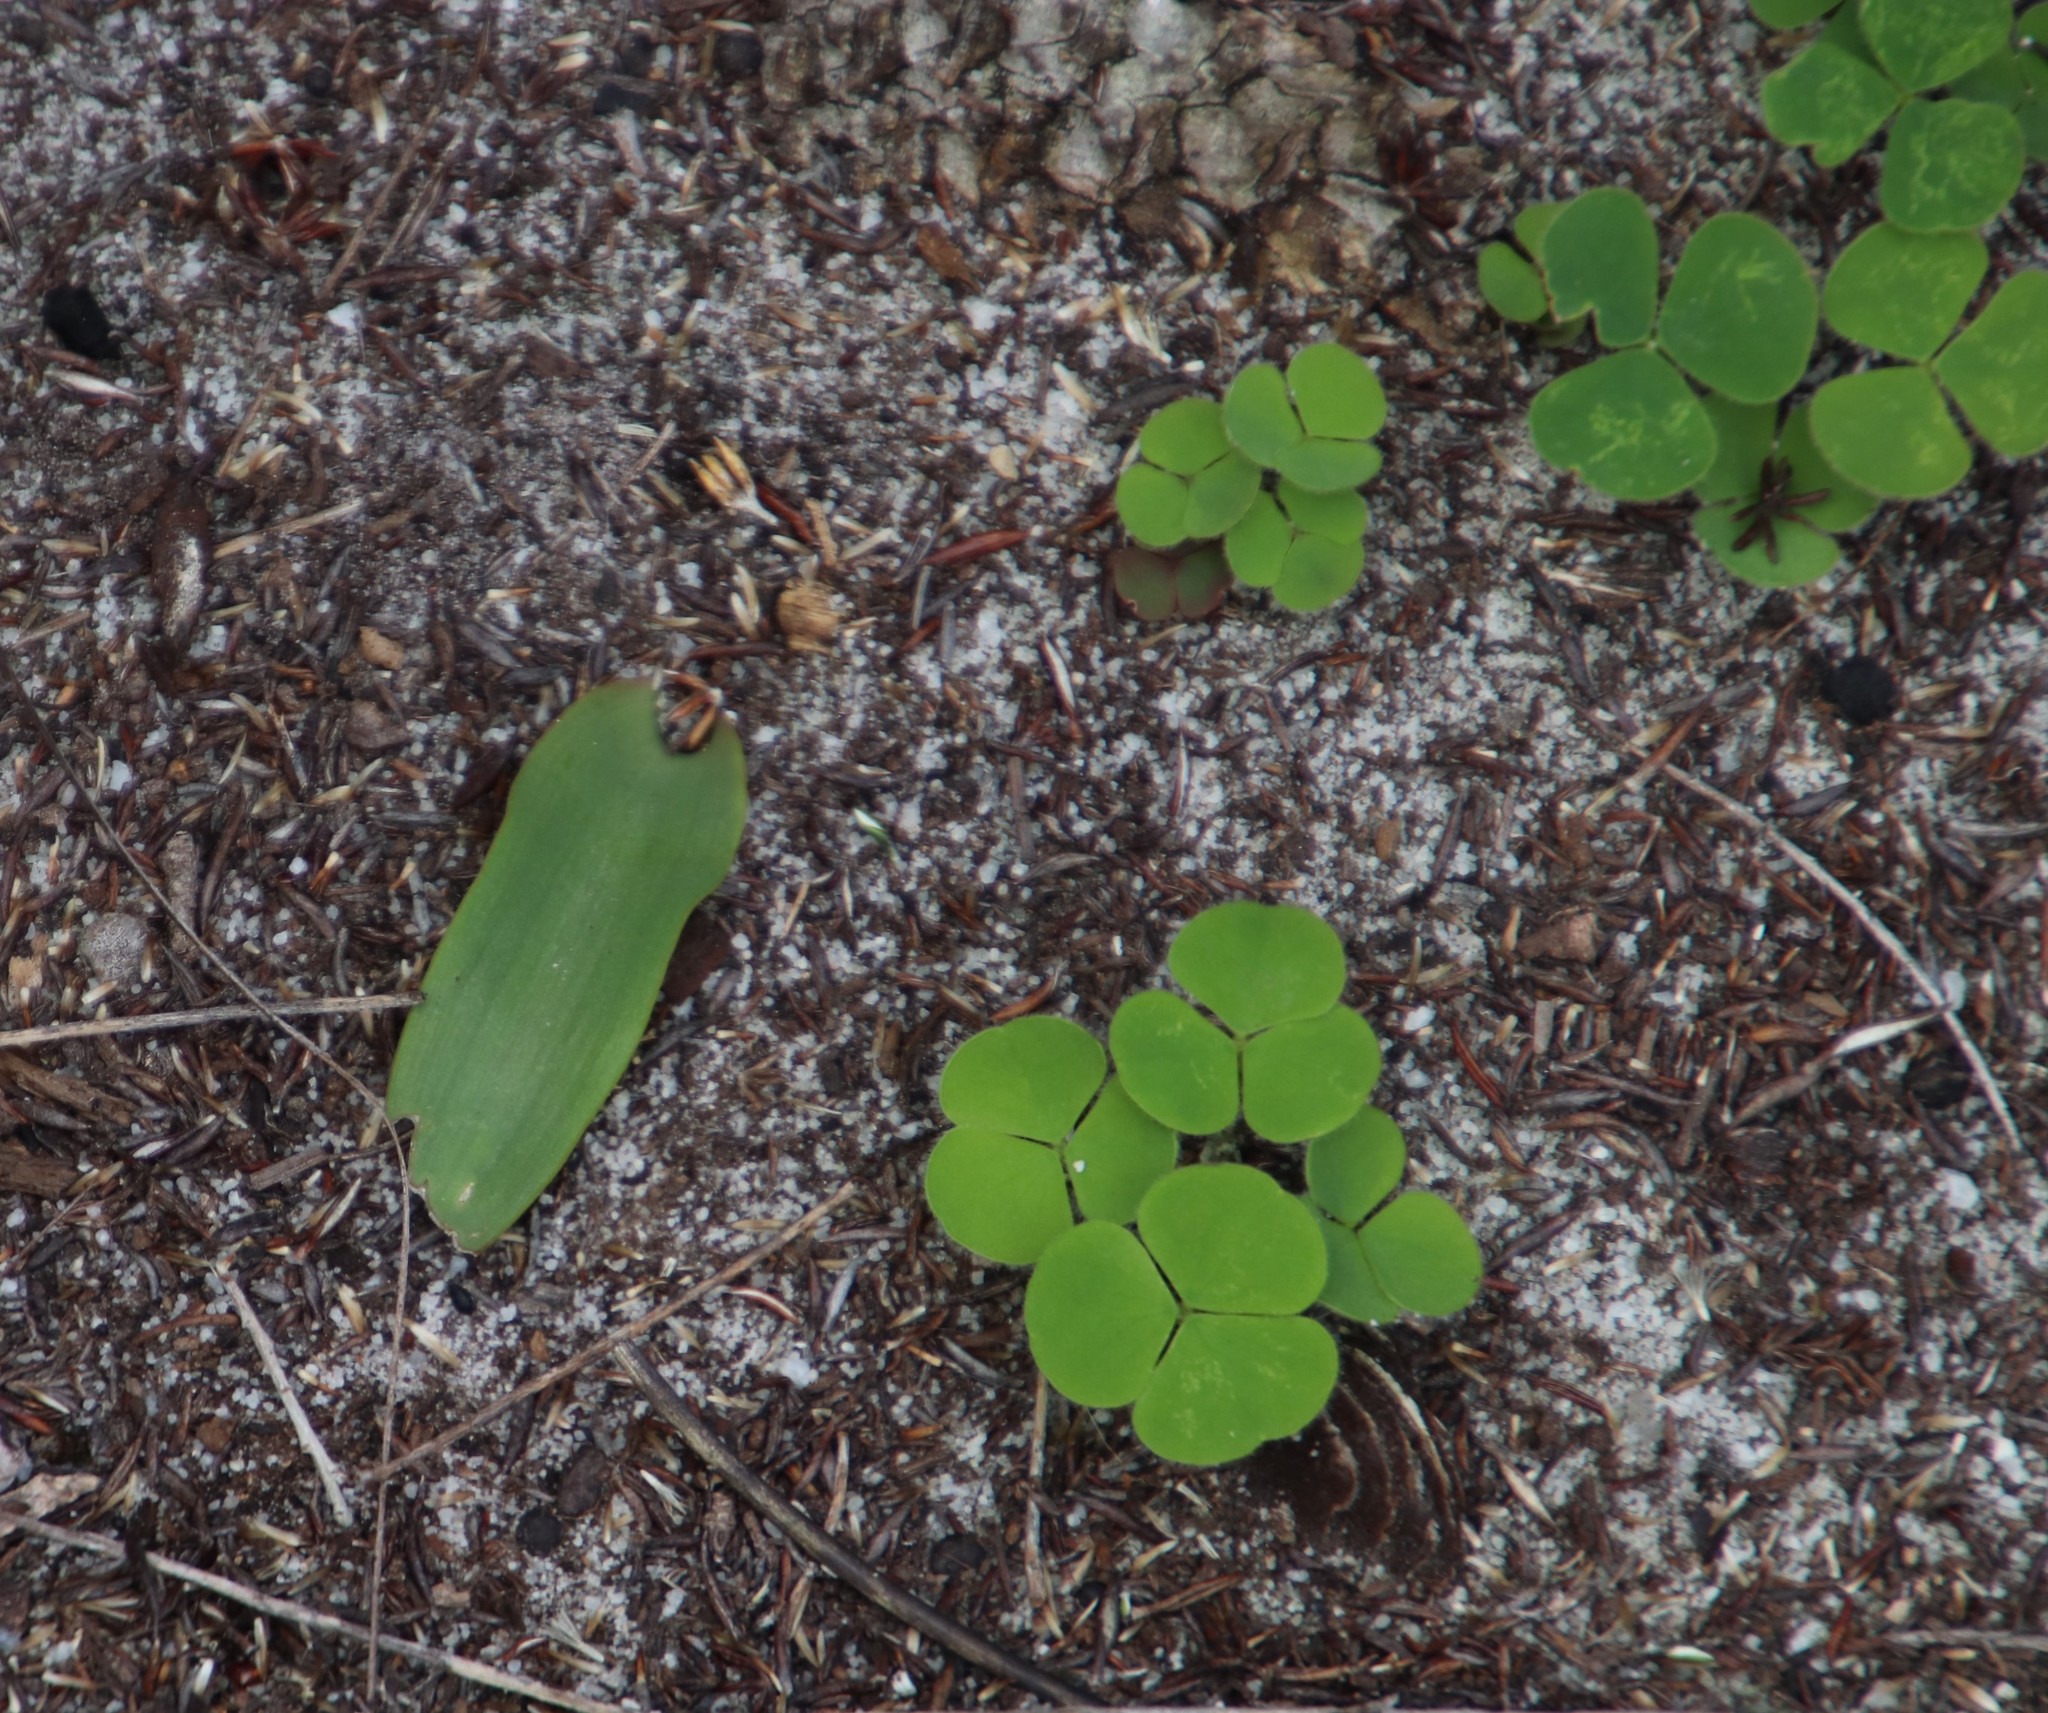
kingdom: Plantae
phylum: Tracheophyta
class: Magnoliopsida
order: Oxalidales
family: Oxalidaceae
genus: Oxalis
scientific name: Oxalis luteola
